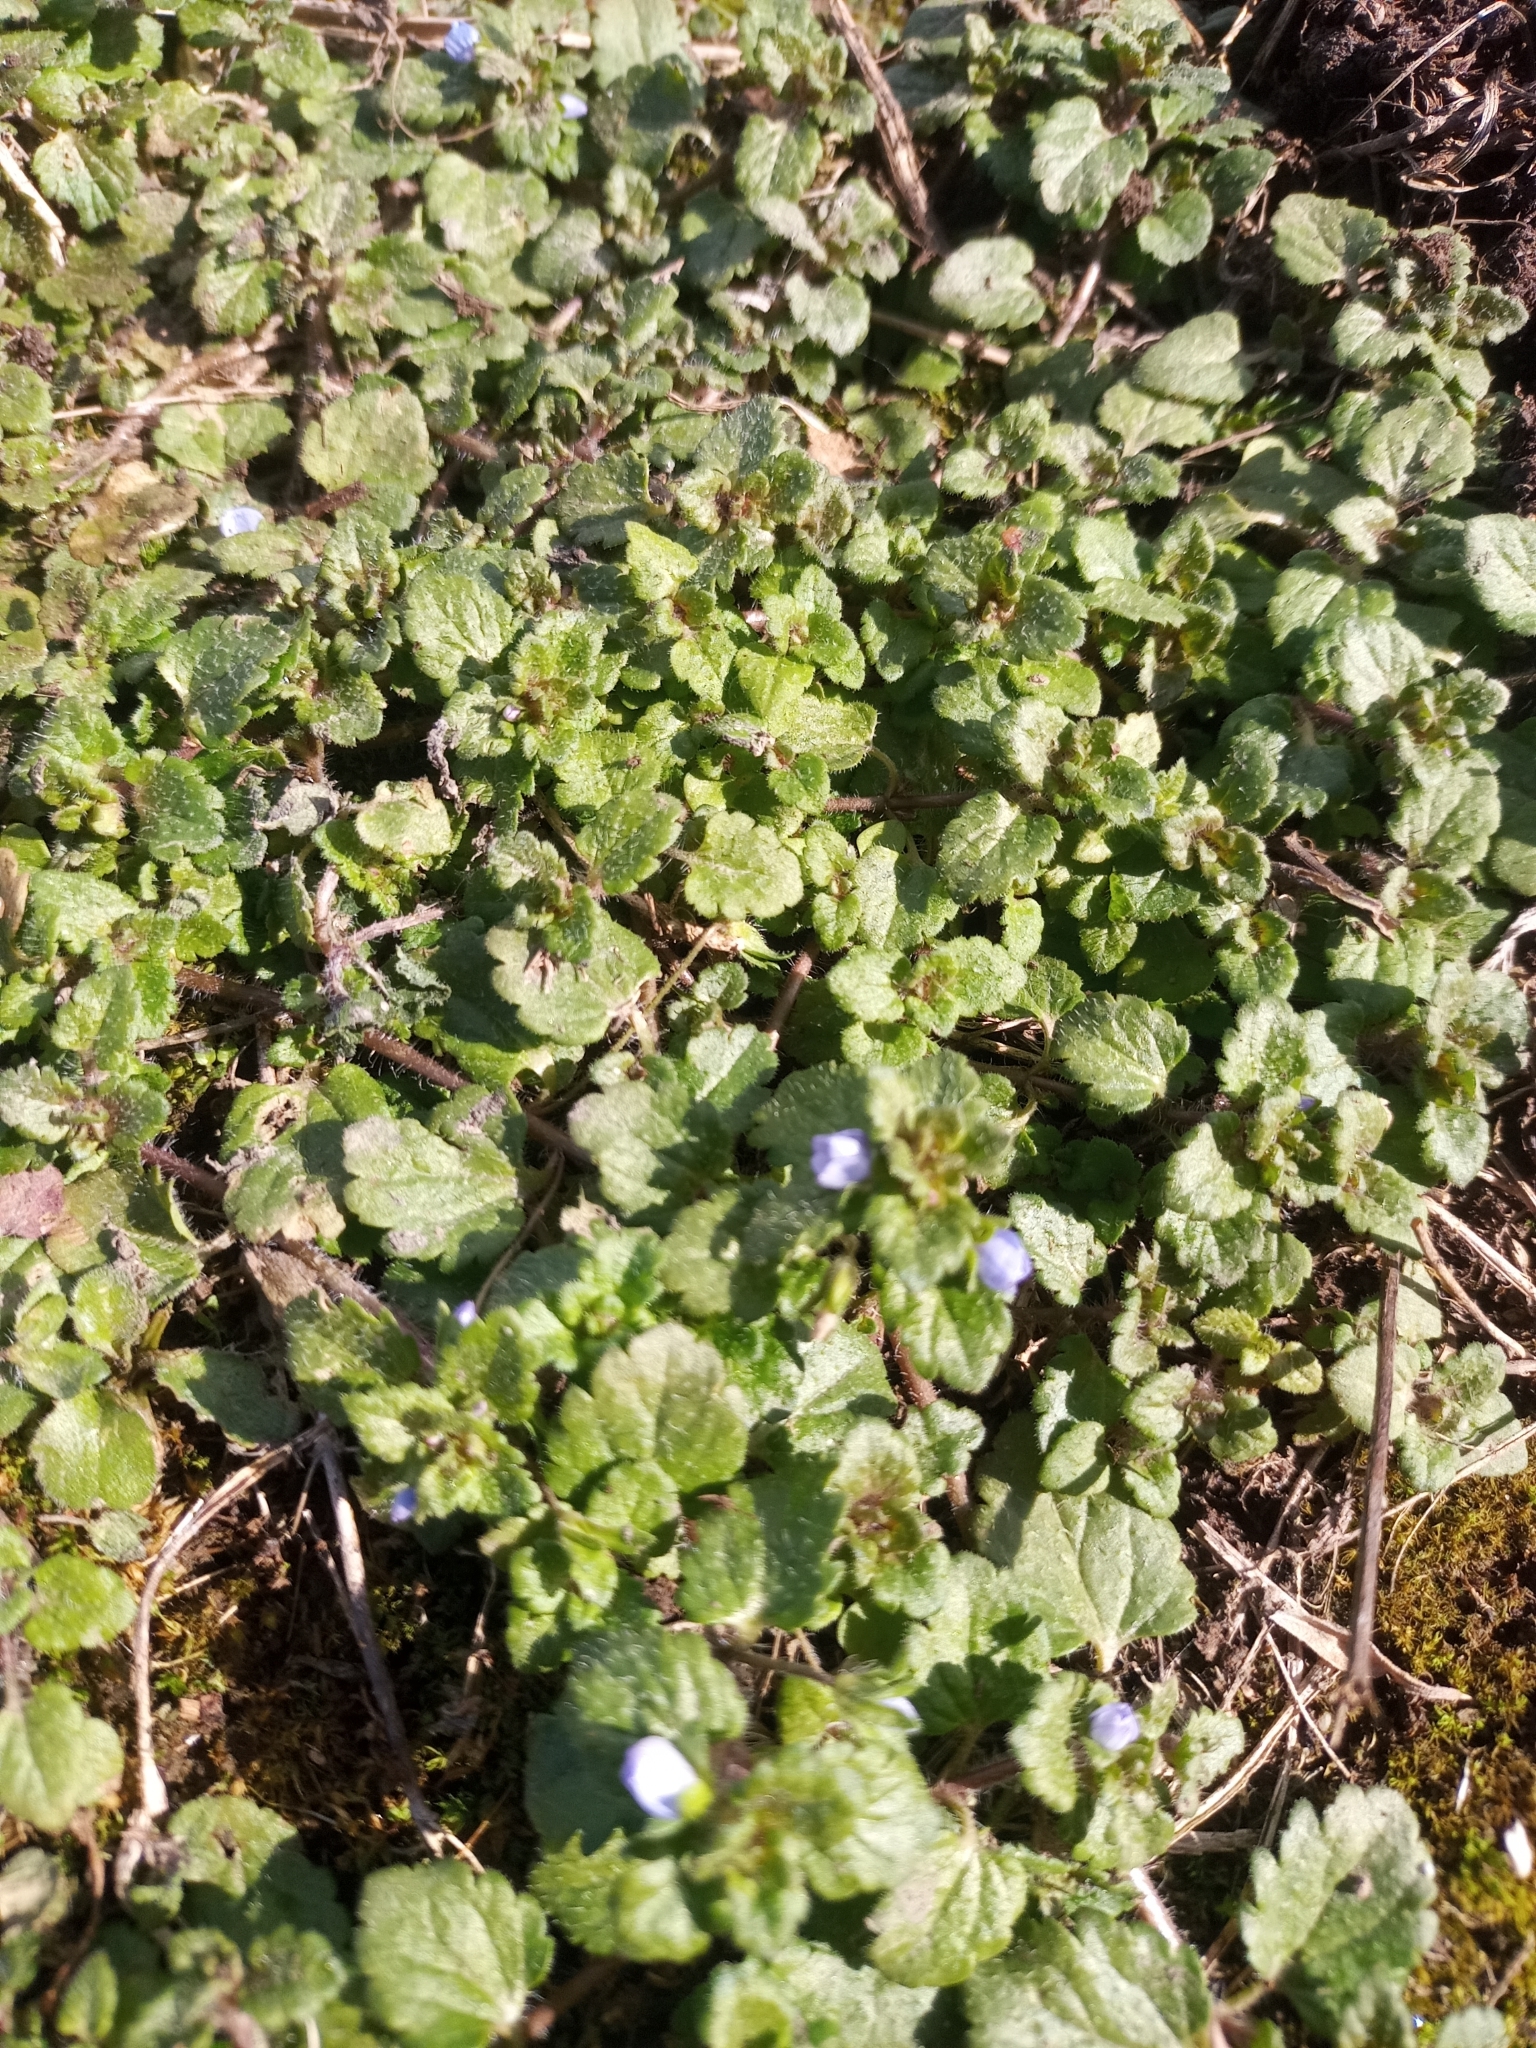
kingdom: Plantae
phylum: Tracheophyta
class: Magnoliopsida
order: Lamiales
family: Plantaginaceae
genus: Veronica
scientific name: Veronica persica
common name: Common field-speedwell
